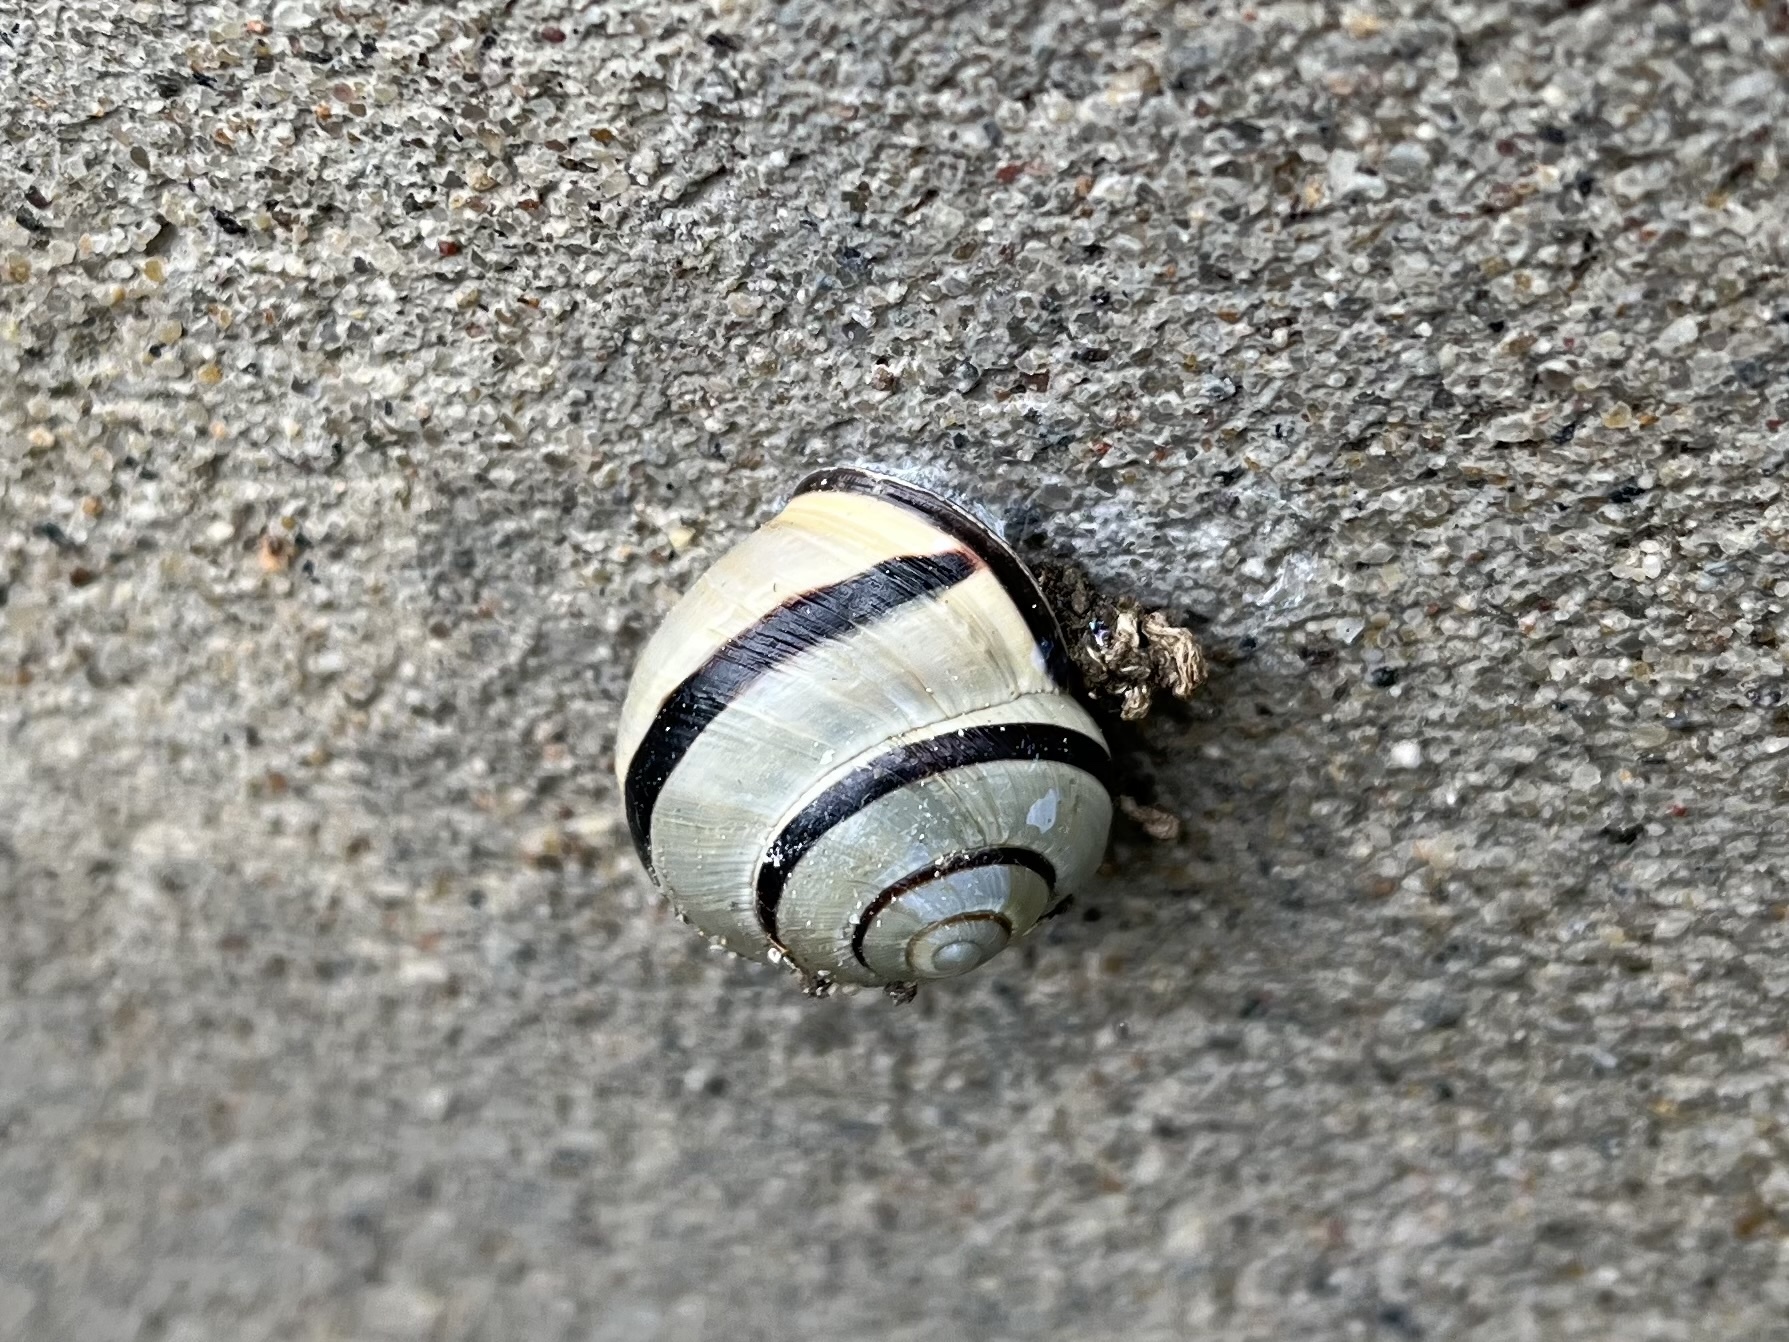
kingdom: Animalia
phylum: Mollusca
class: Gastropoda
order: Stylommatophora
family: Helicidae
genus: Cepaea
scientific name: Cepaea nemoralis
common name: Grovesnail
